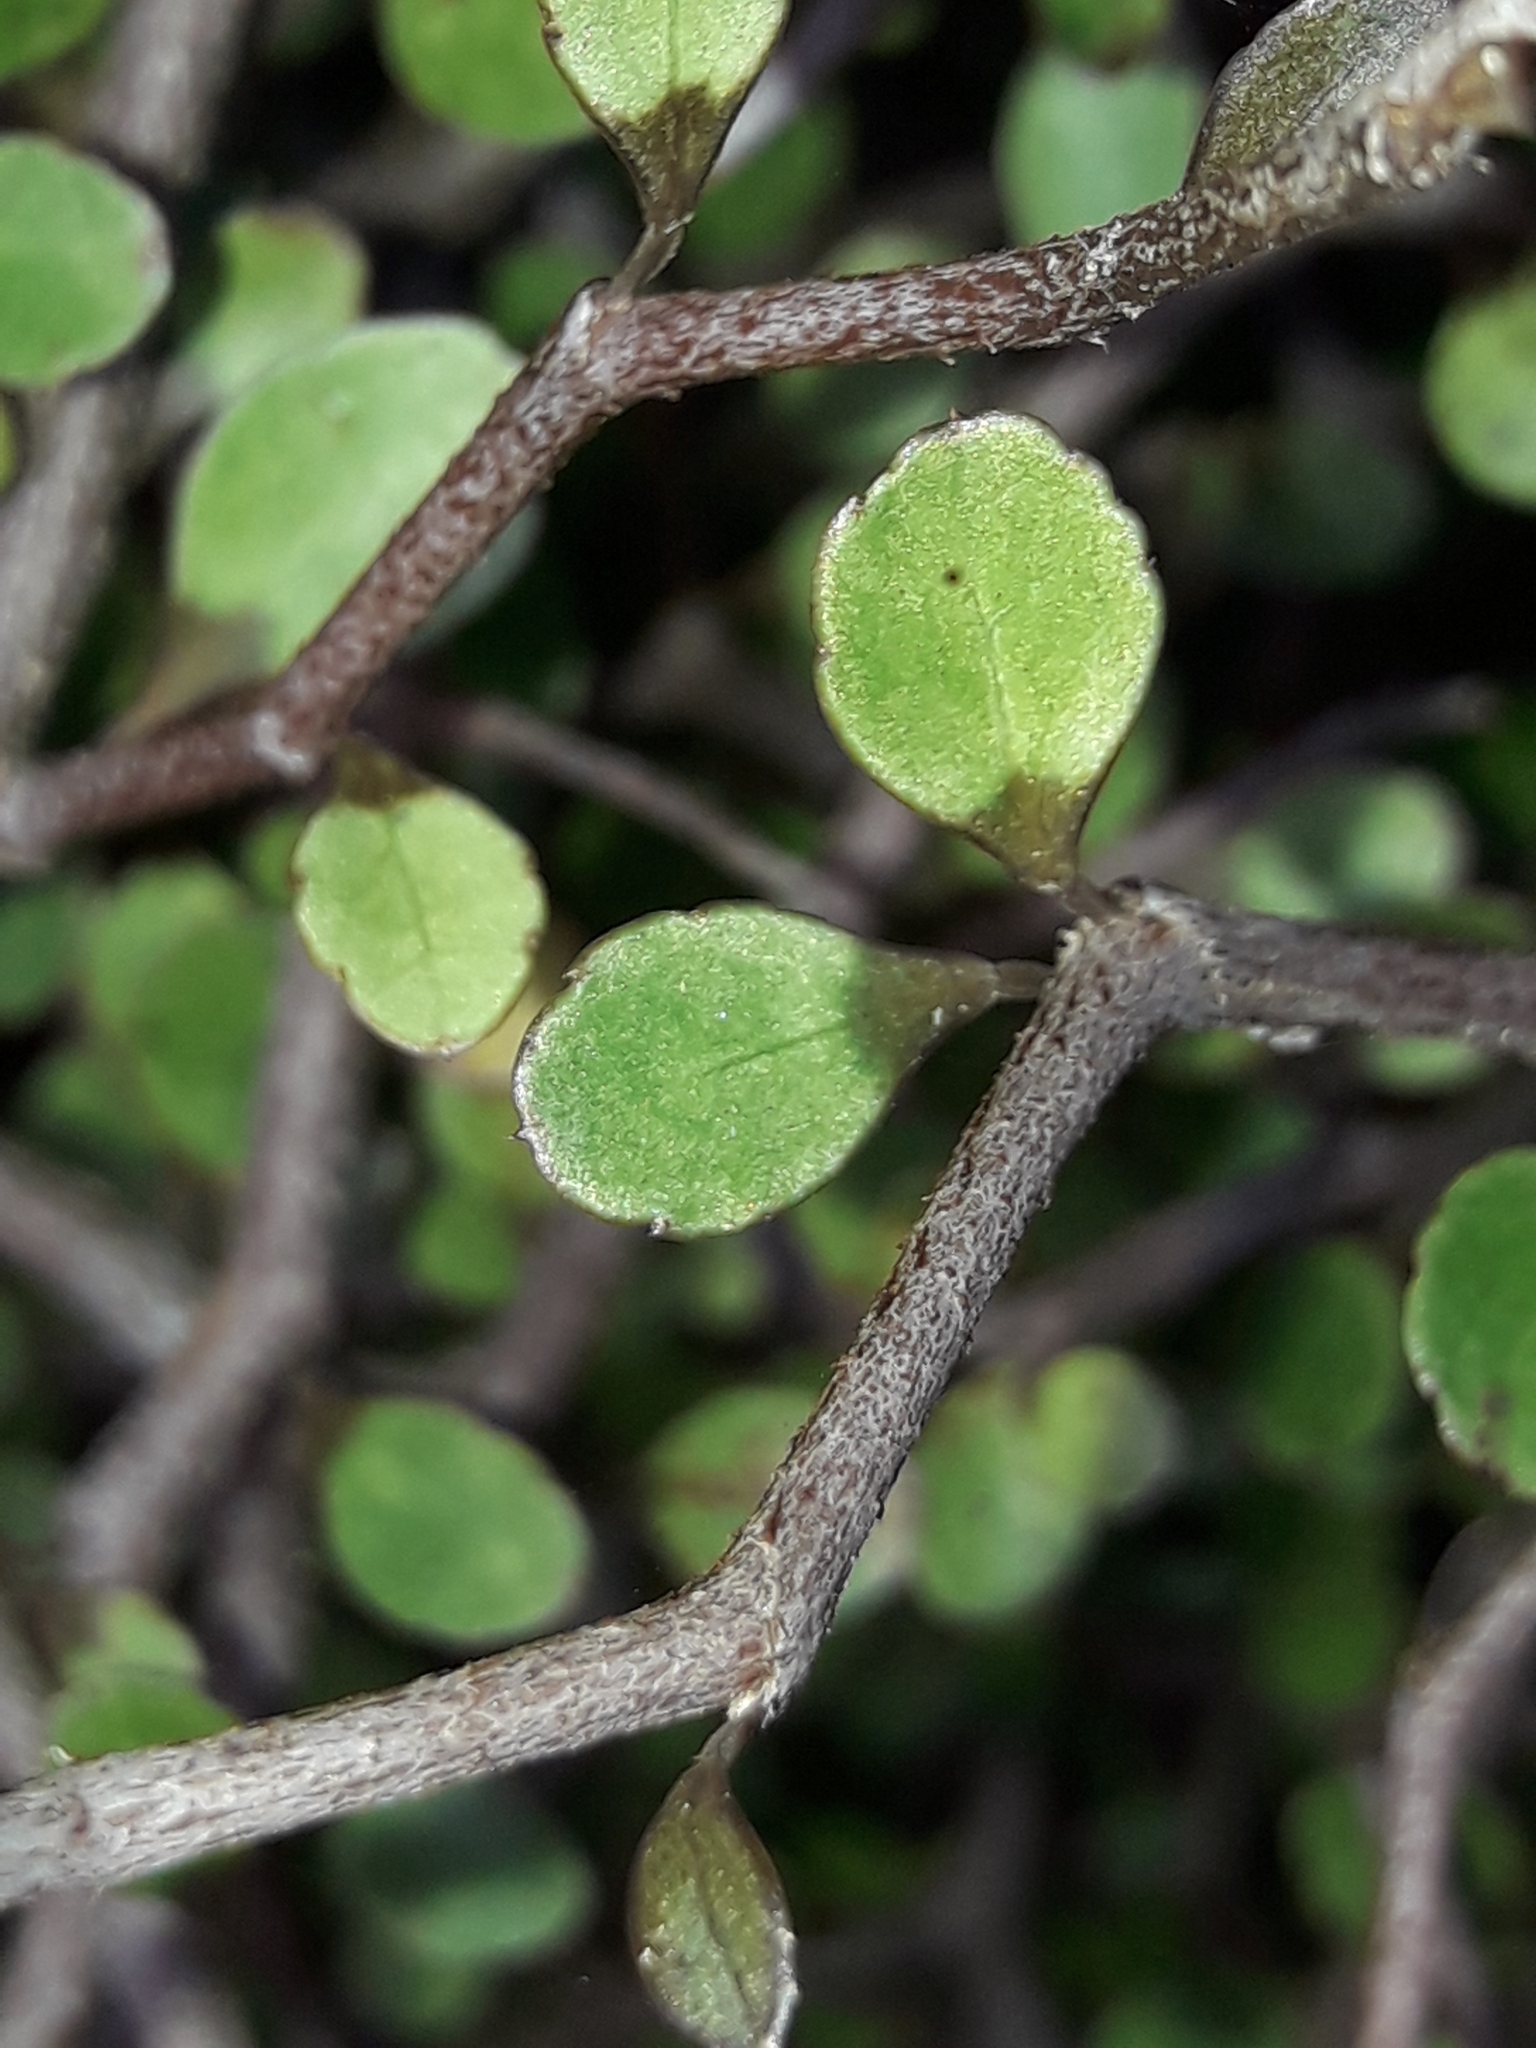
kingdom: Plantae
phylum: Tracheophyta
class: Magnoliopsida
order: Apiales
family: Araliaceae
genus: Raukaua
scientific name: Raukaua anomalus
